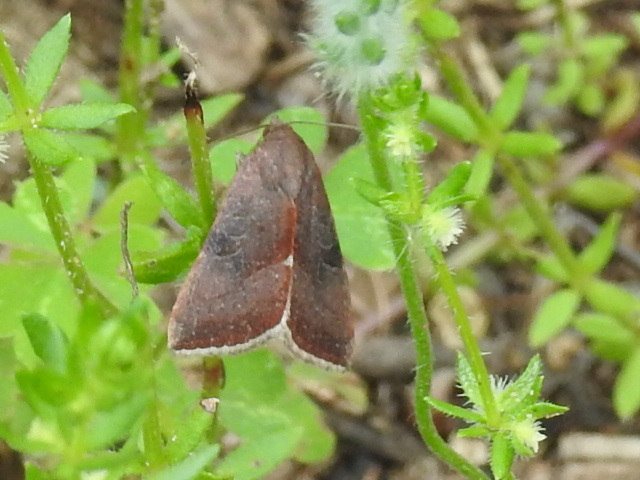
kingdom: Animalia
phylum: Arthropoda
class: Insecta
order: Lepidoptera
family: Noctuidae
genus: Galgula
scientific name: Galgula partita
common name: Wedgeling
